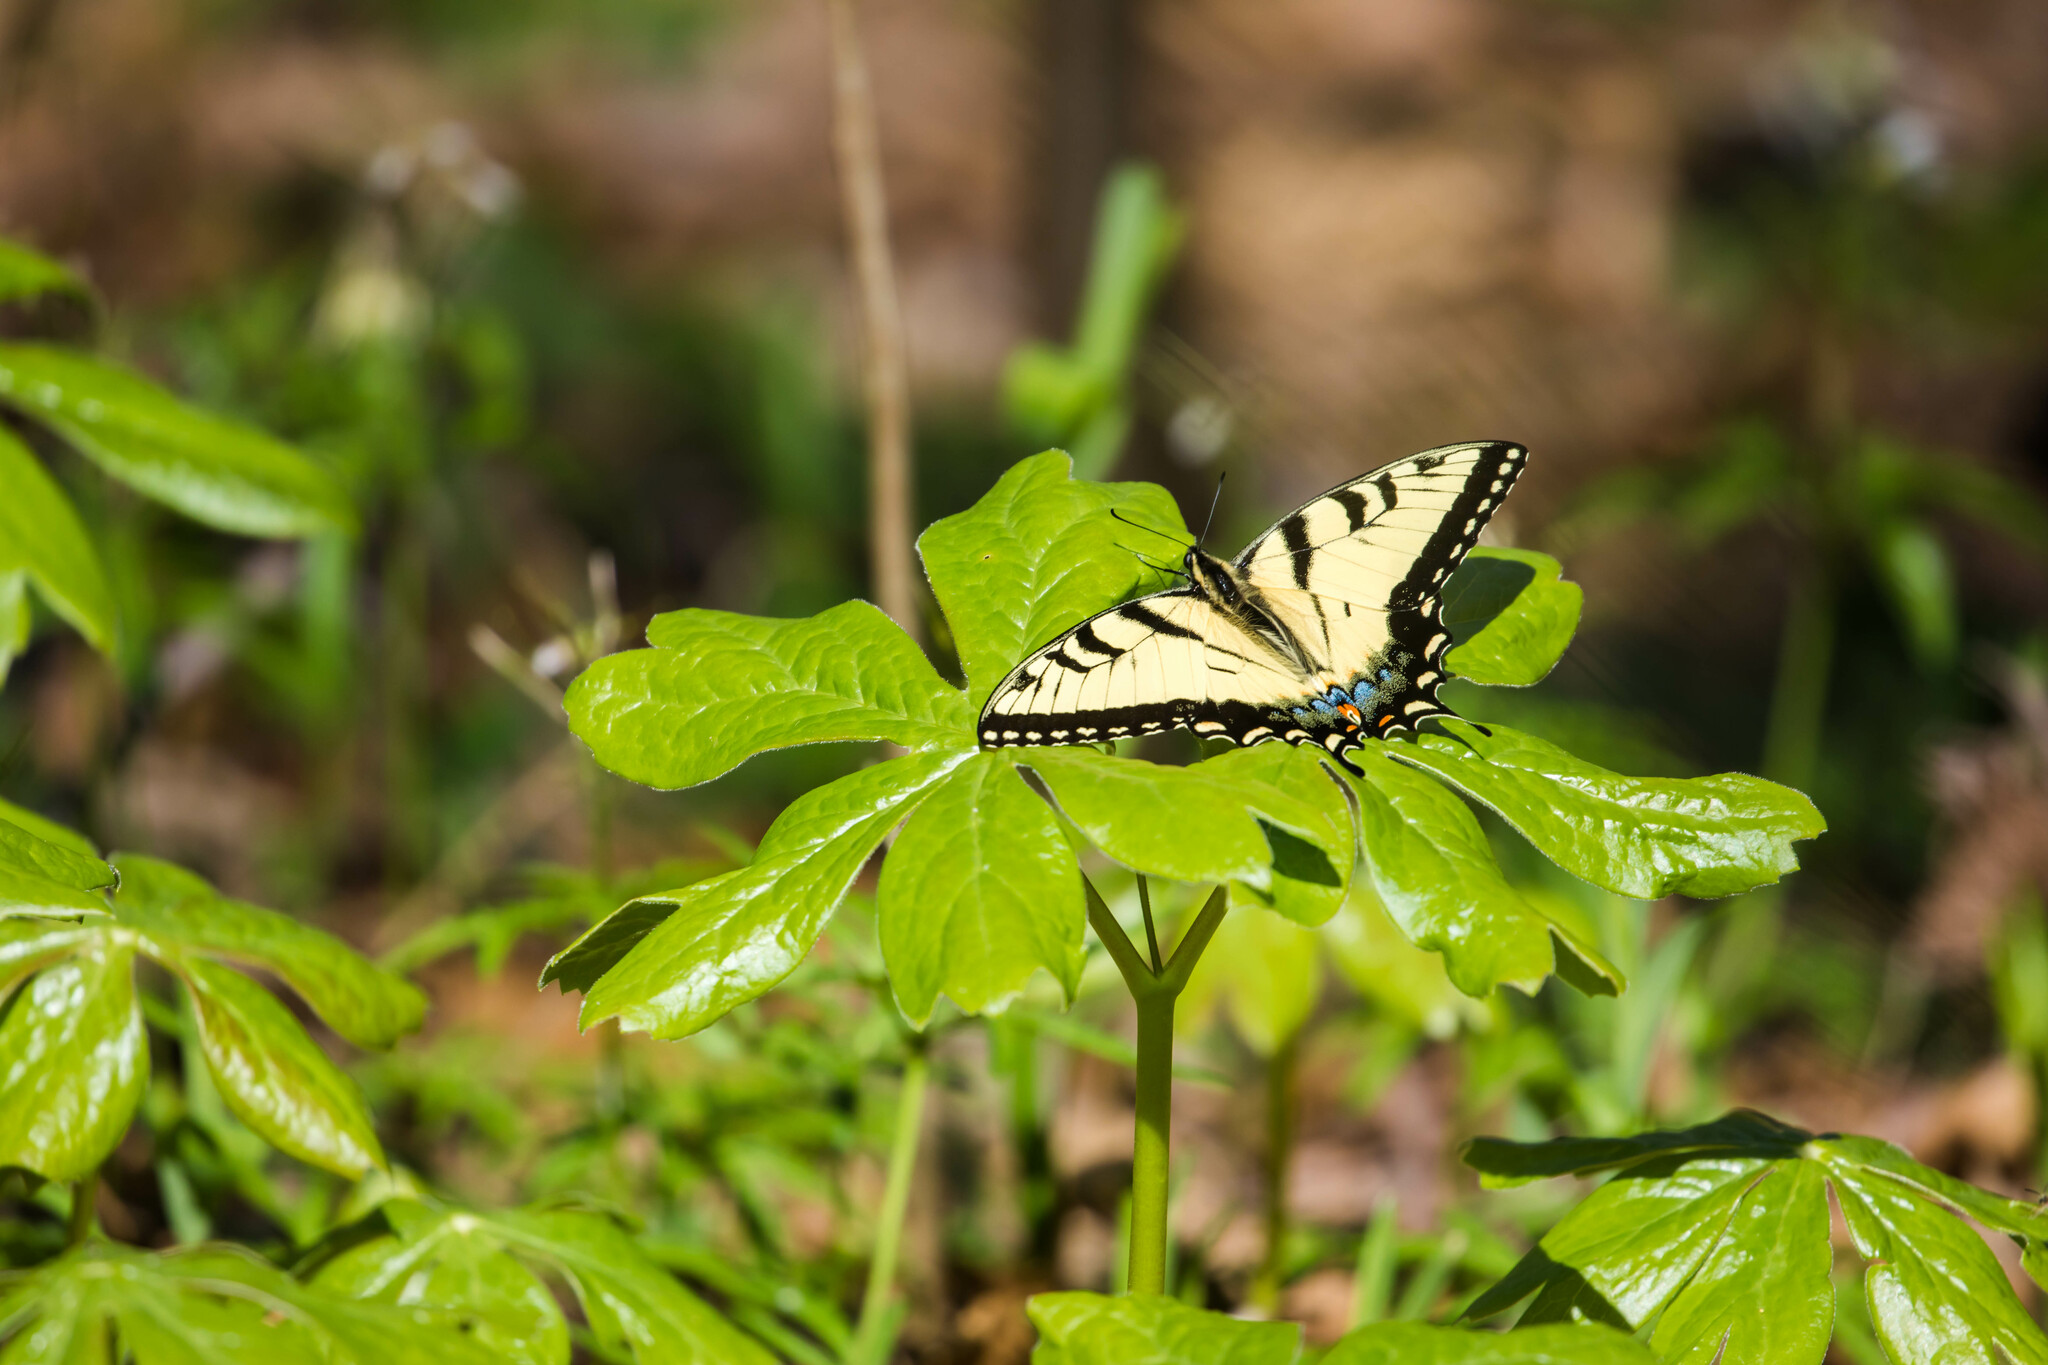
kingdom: Animalia
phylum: Arthropoda
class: Insecta
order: Lepidoptera
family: Papilionidae
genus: Papilio
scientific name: Papilio glaucus
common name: Tiger swallowtail
